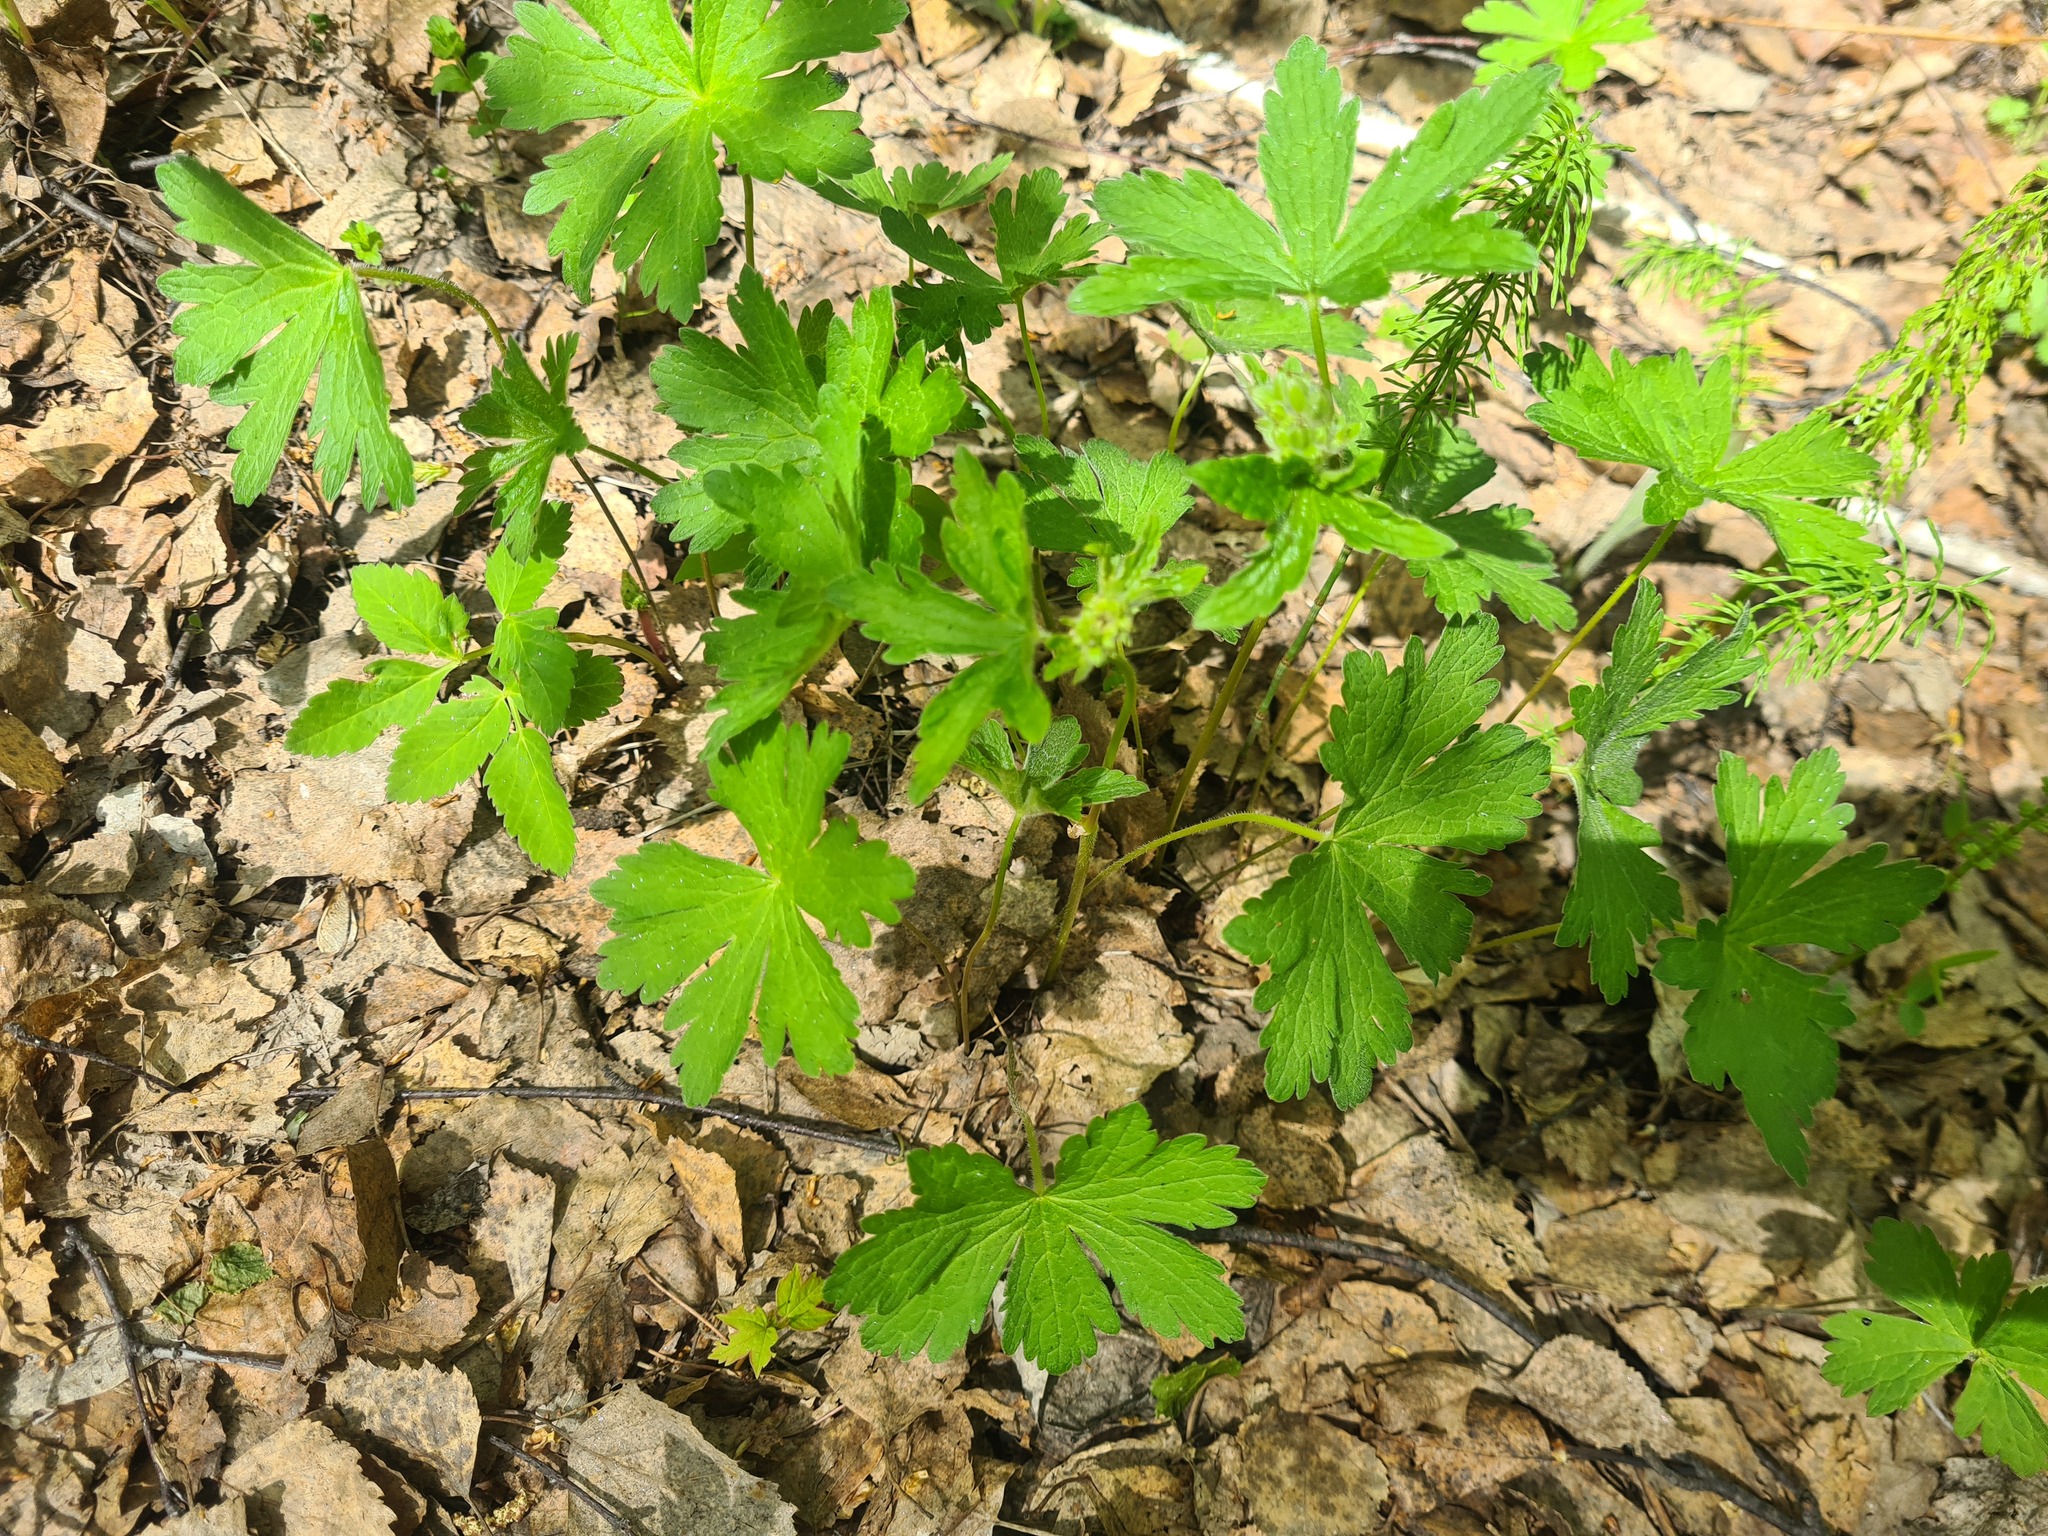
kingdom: Plantae
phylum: Tracheophyta
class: Magnoliopsida
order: Geraniales
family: Geraniaceae
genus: Geranium
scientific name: Geranium sylvaticum
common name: Wood crane's-bill
